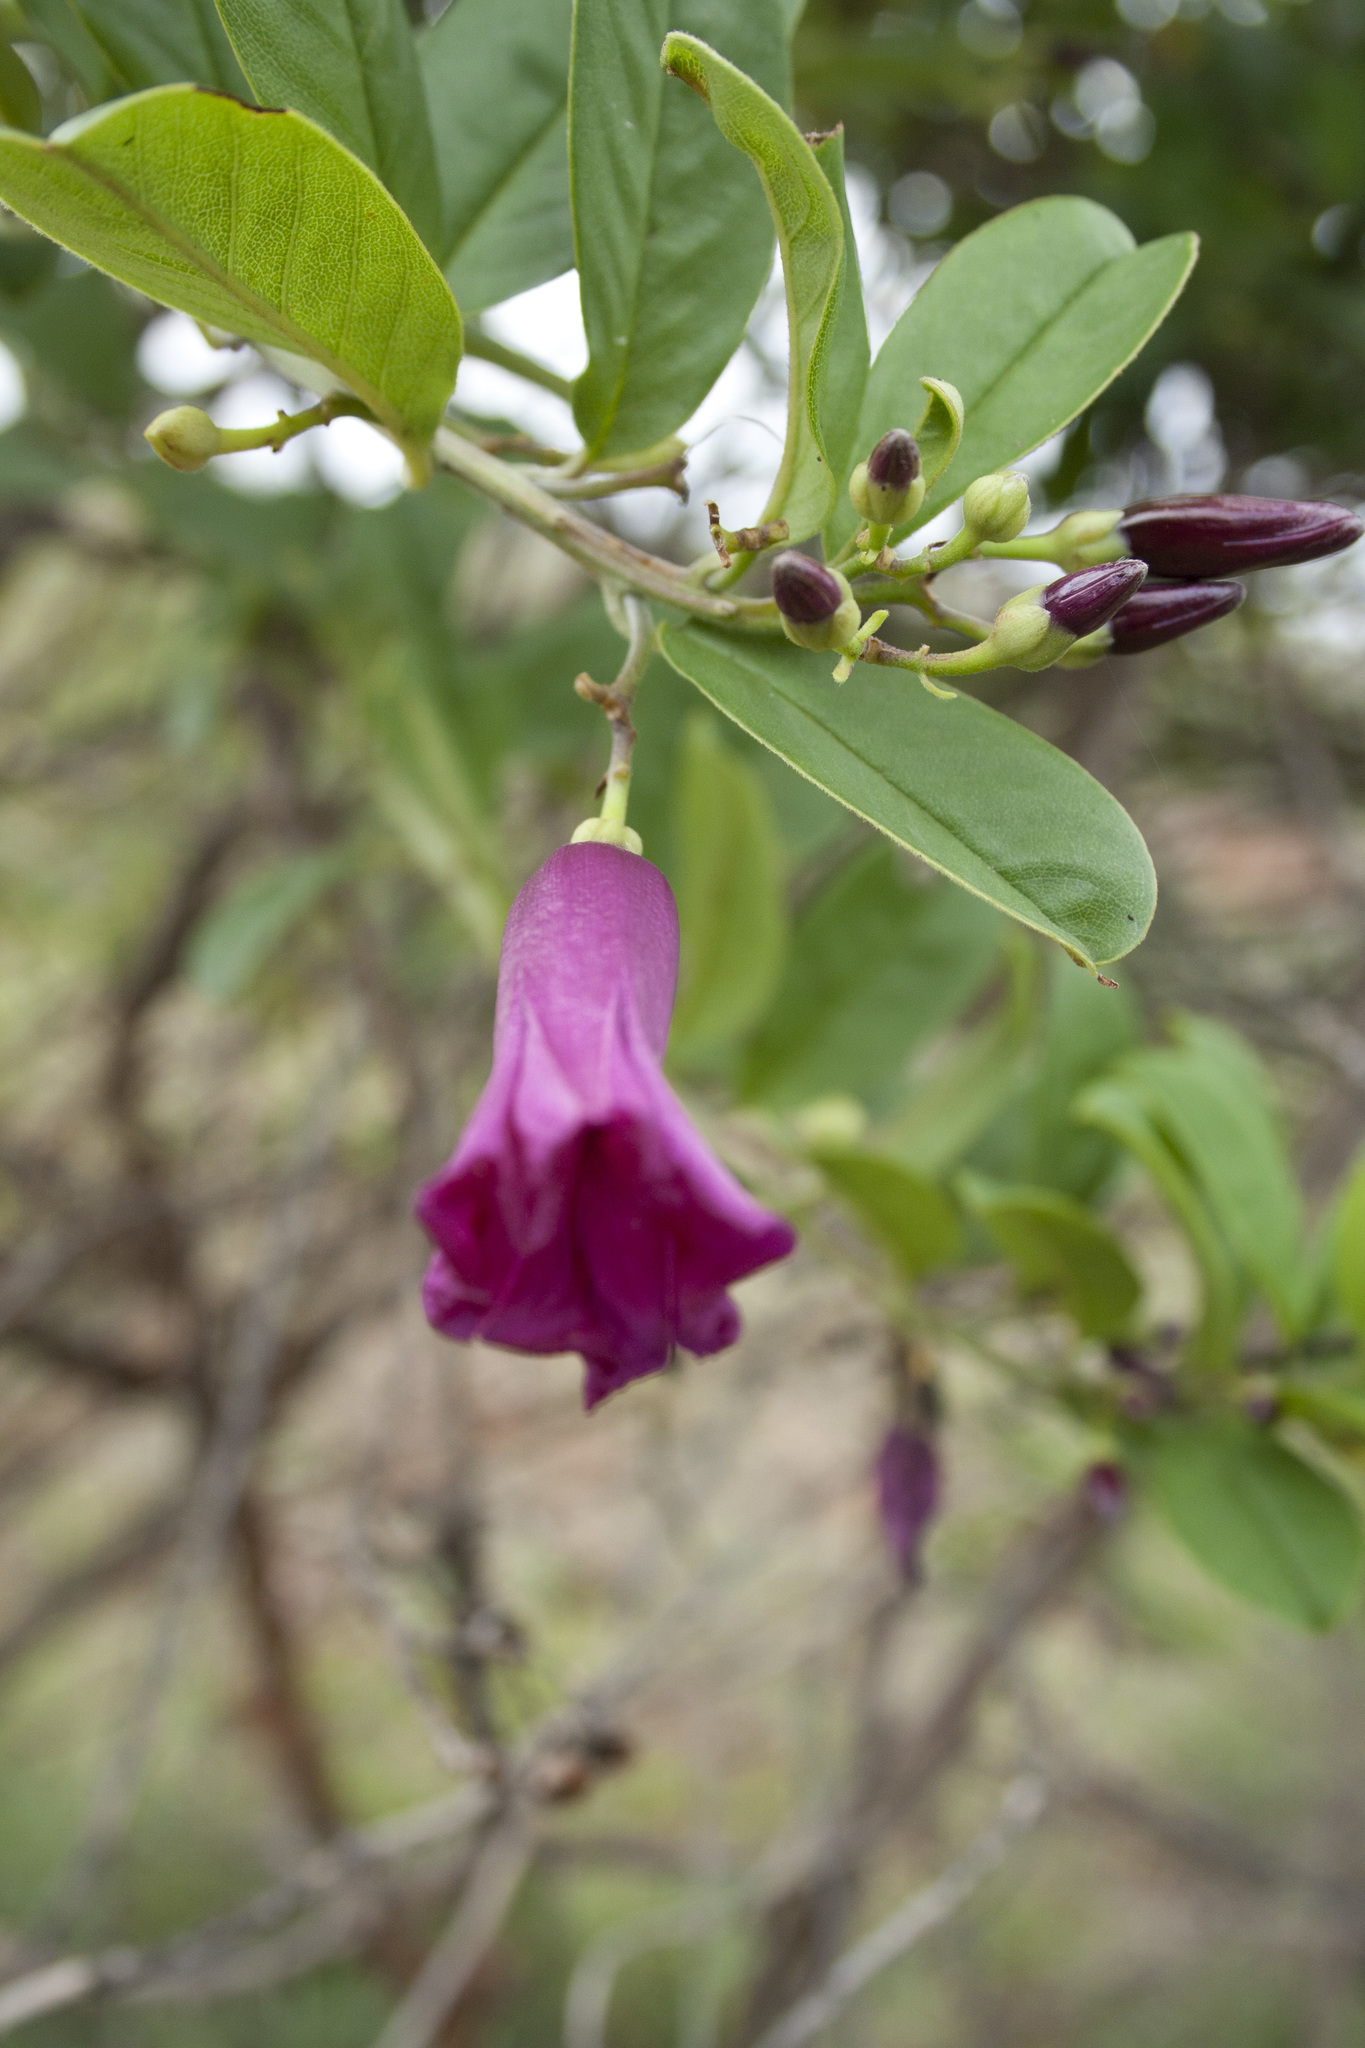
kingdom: Plantae
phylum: Tracheophyta
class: Magnoliopsida
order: Solanales
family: Convolvulaceae
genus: Argyreia
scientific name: Argyreia cuneata
